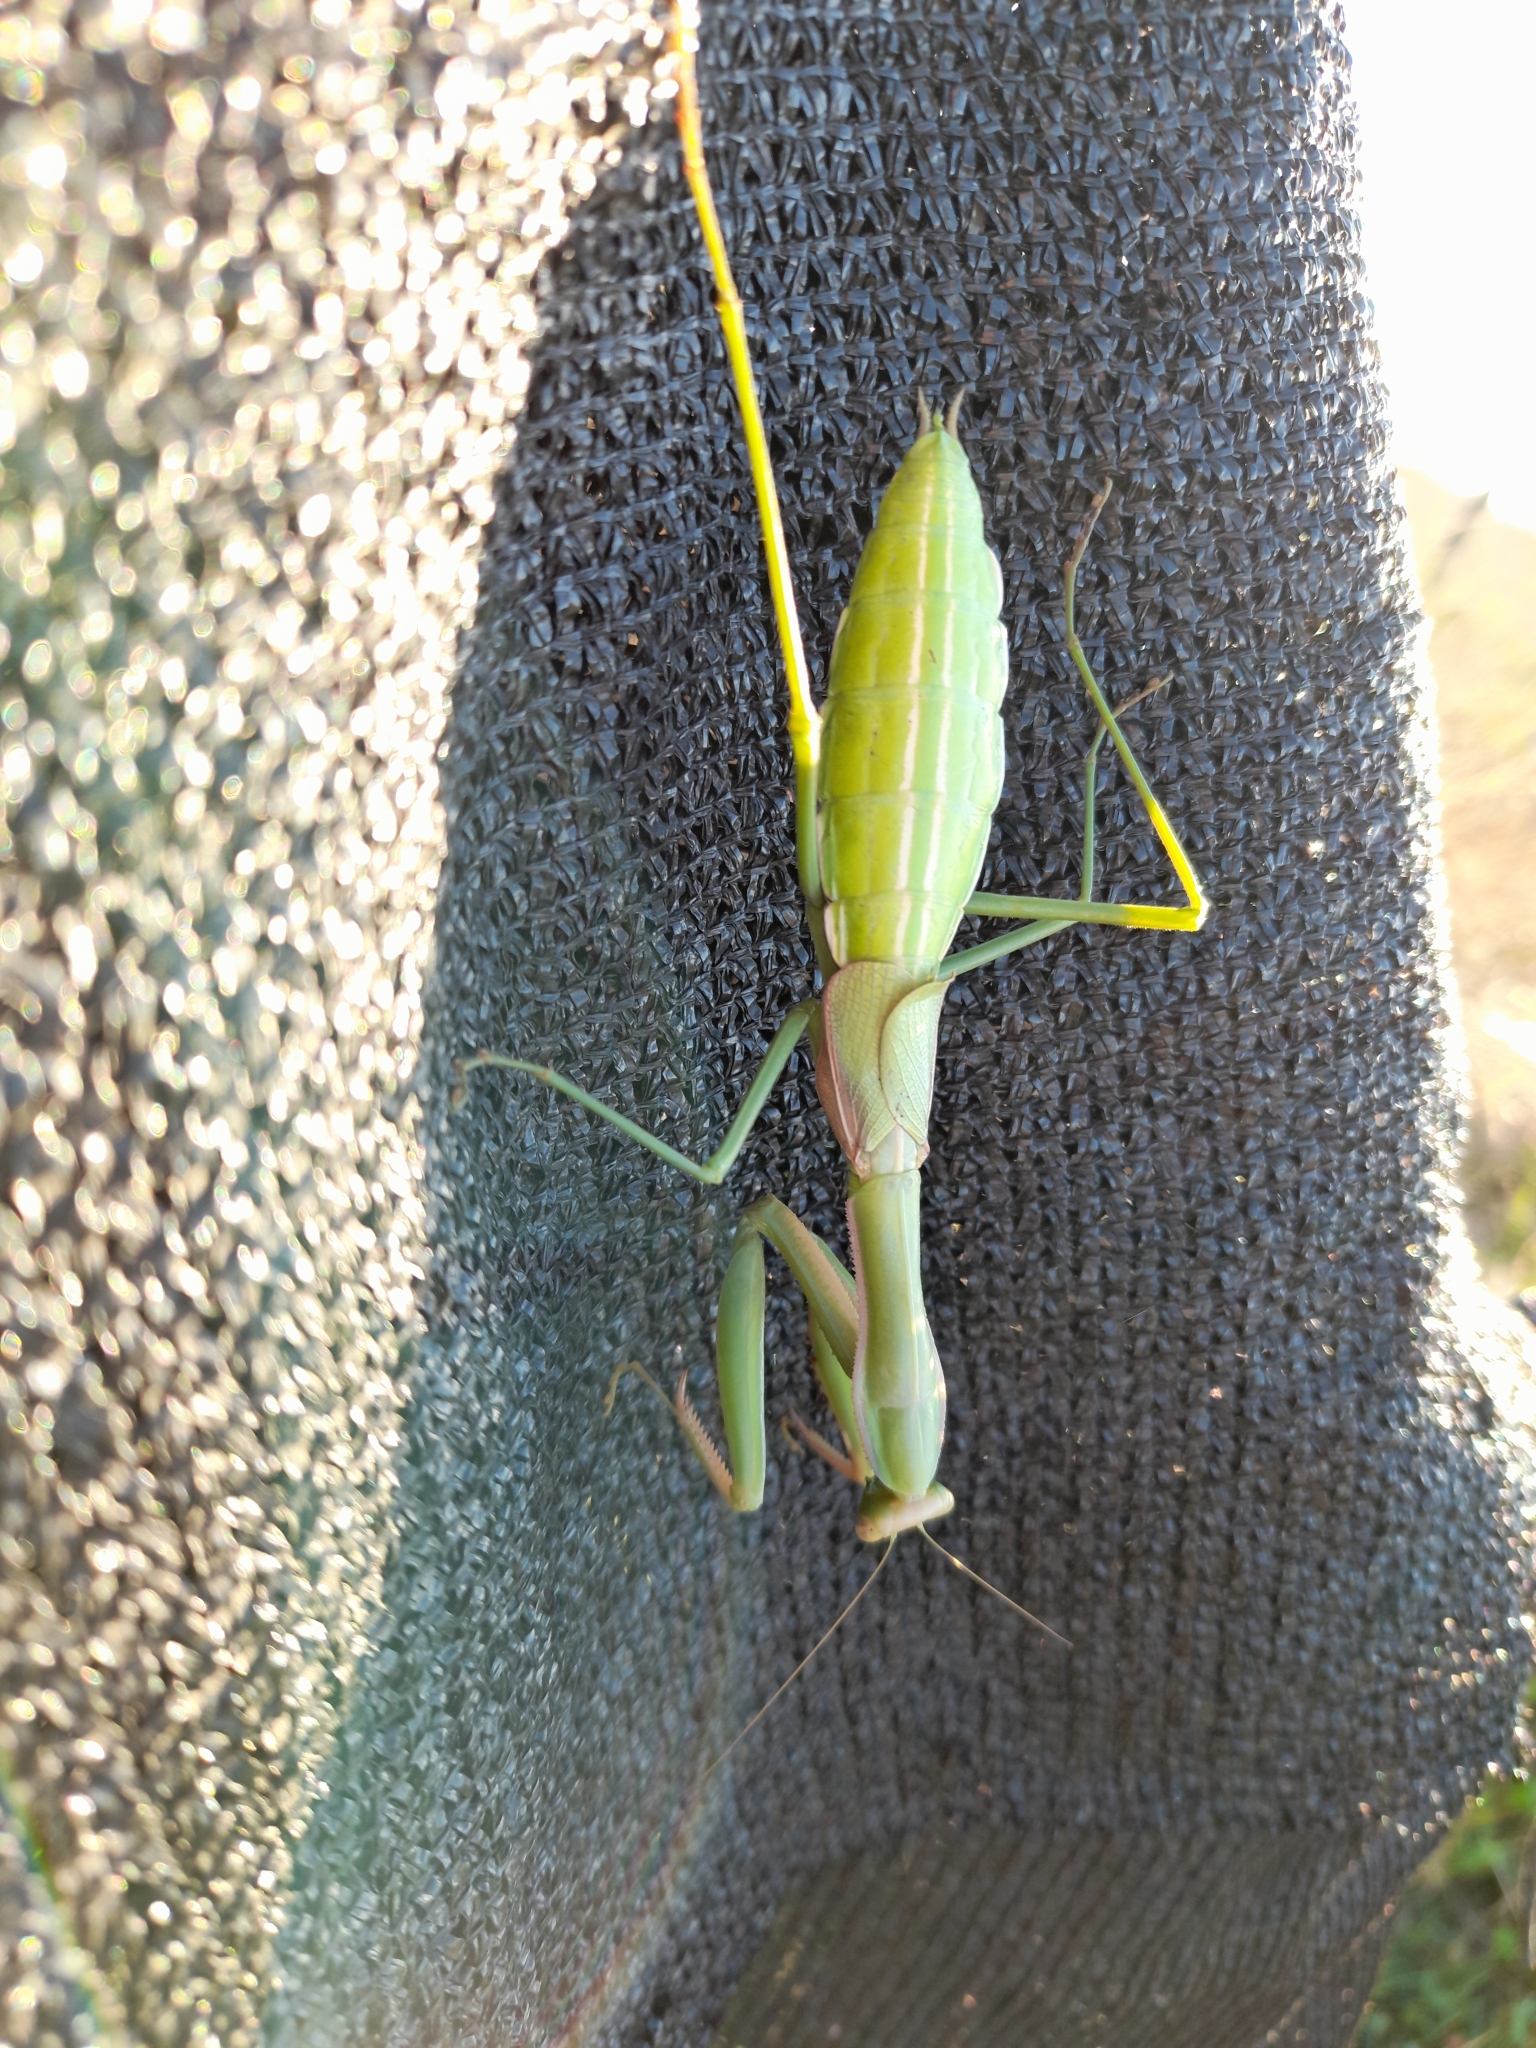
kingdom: Animalia
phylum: Arthropoda
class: Insecta
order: Mantodea
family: Coptopterygidae
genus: Coptopteryx
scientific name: Coptopteryx argentina
